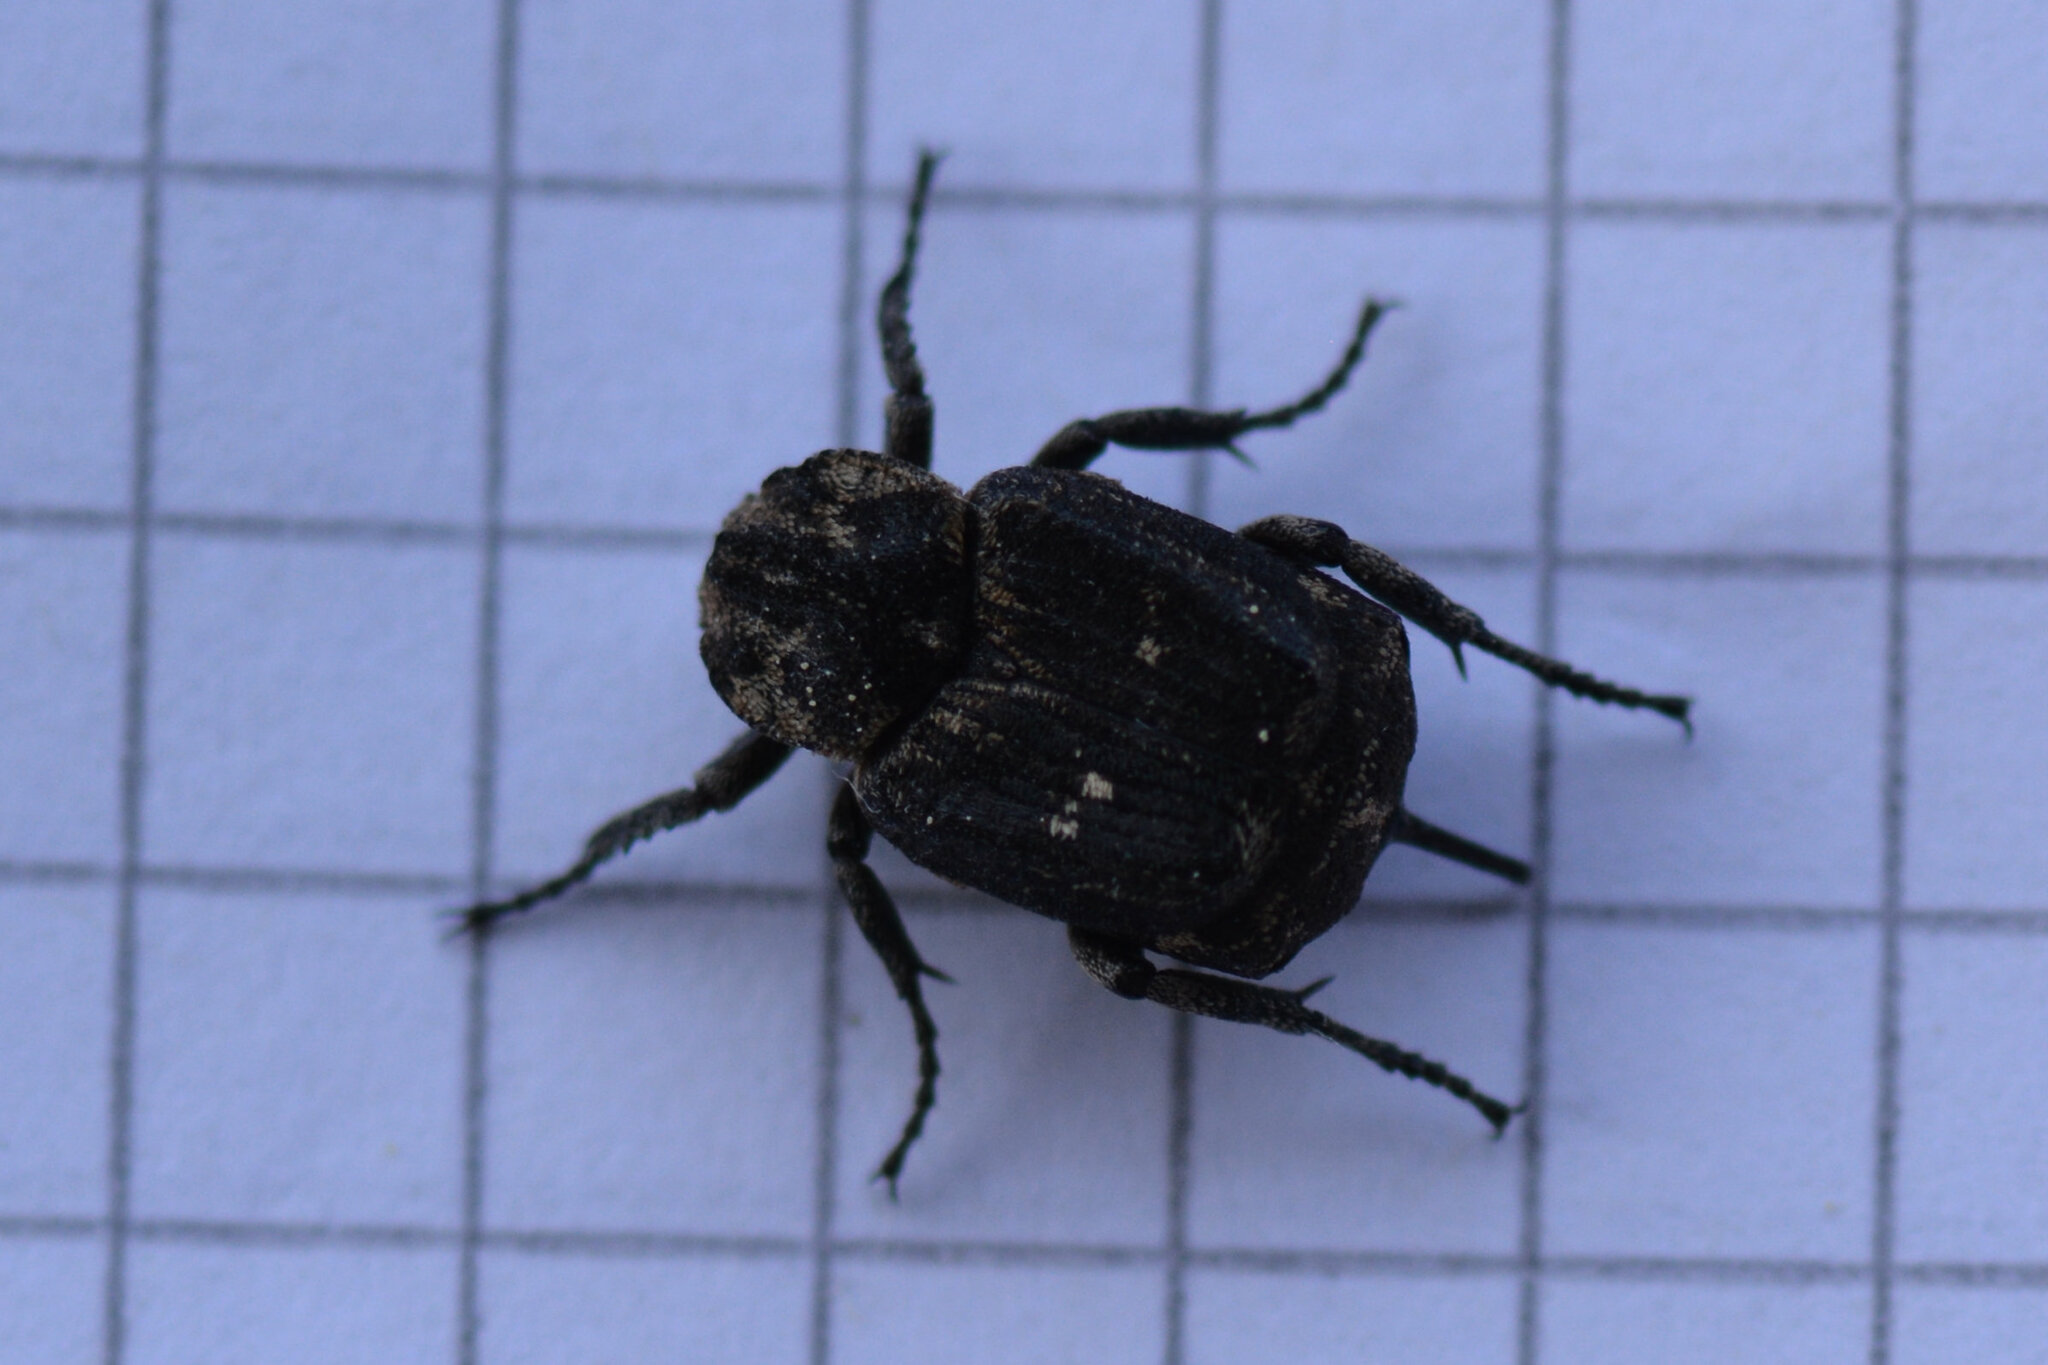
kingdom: Animalia
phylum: Arthropoda
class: Insecta
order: Coleoptera
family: Scarabaeidae
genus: Valgus
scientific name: Valgus hemipterus
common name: Bug flower chafer
